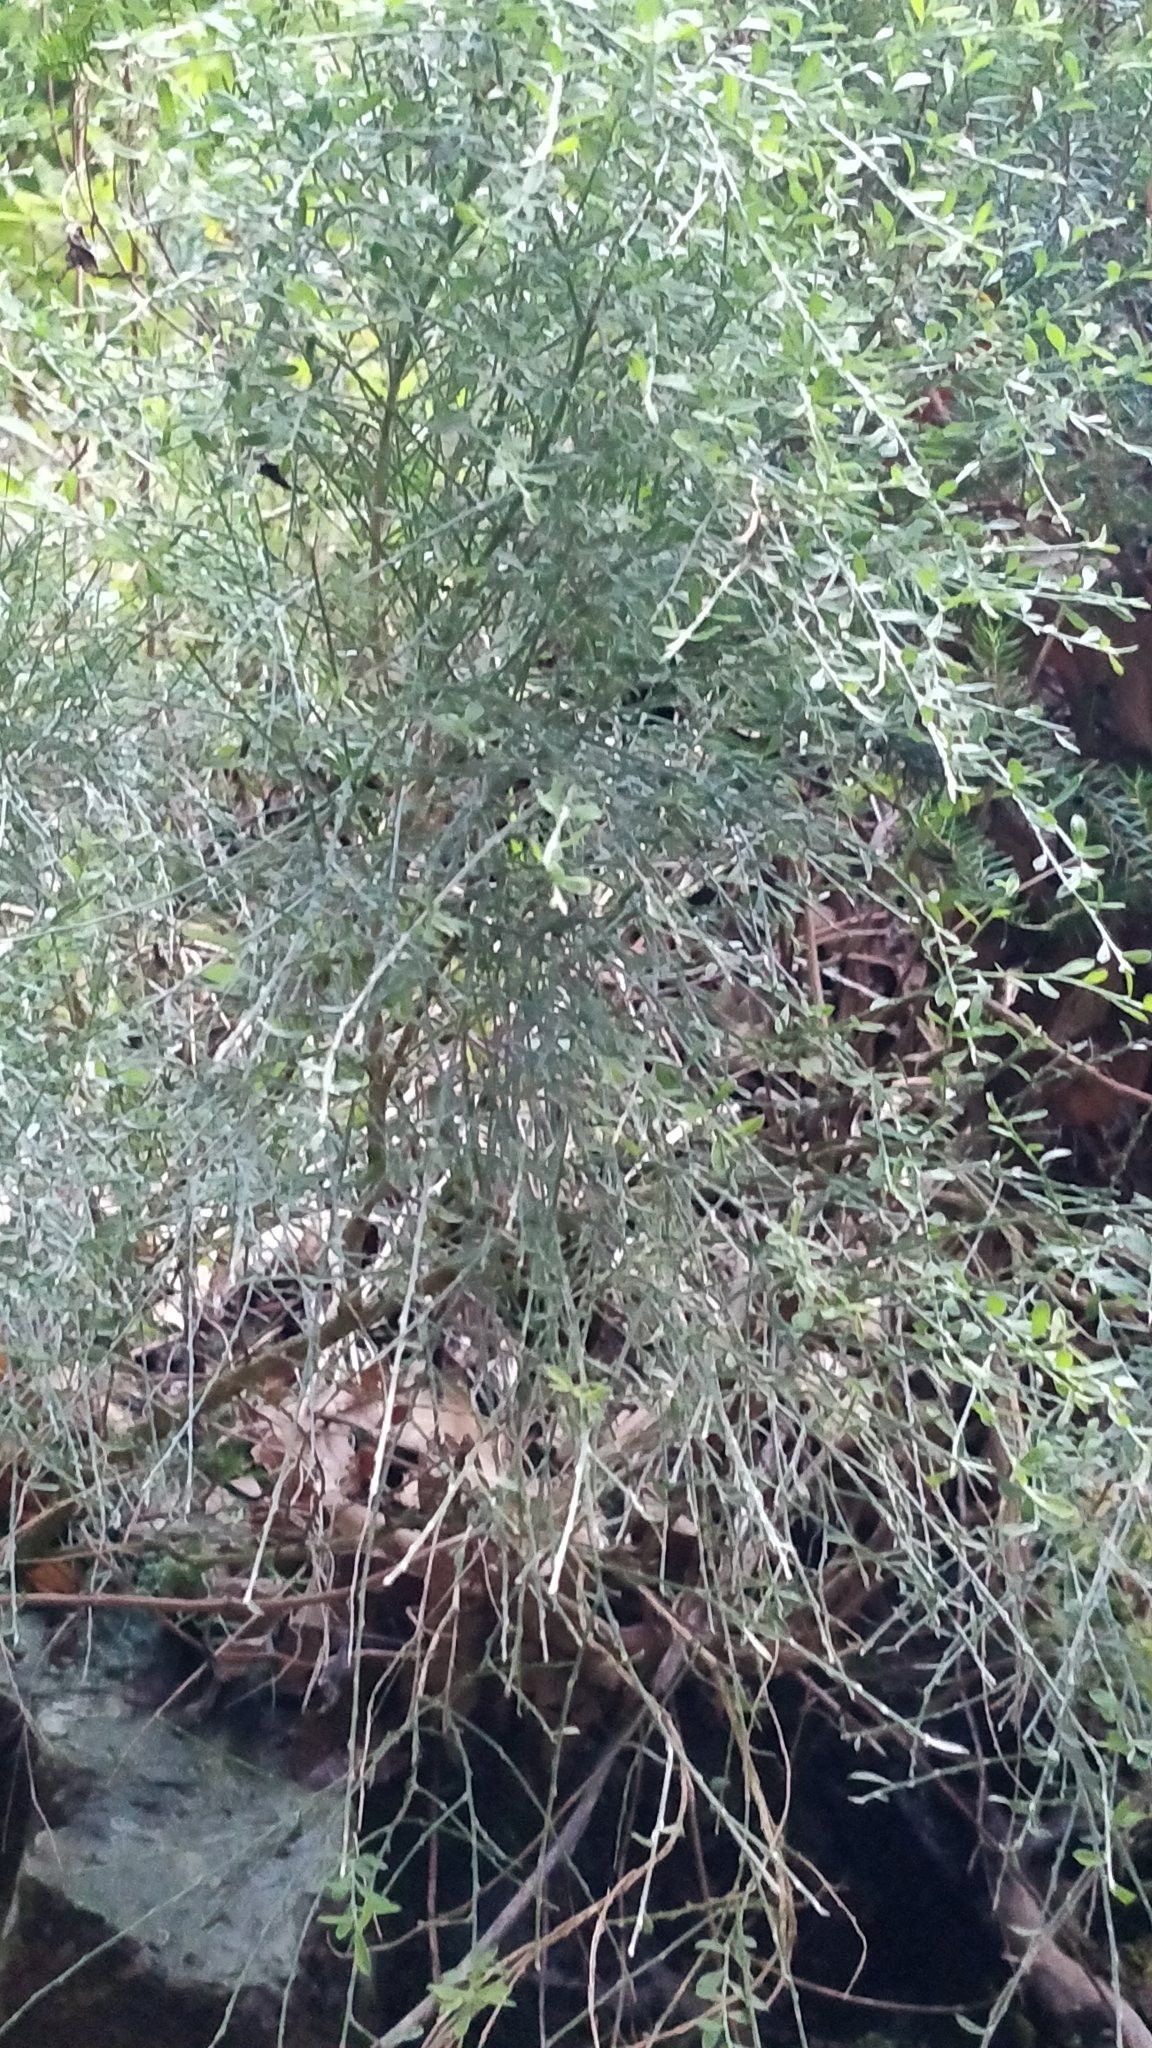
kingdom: Plantae
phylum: Tracheophyta
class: Magnoliopsida
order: Fabales
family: Fabaceae
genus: Genista
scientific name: Genista tenera
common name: Madeira broom
